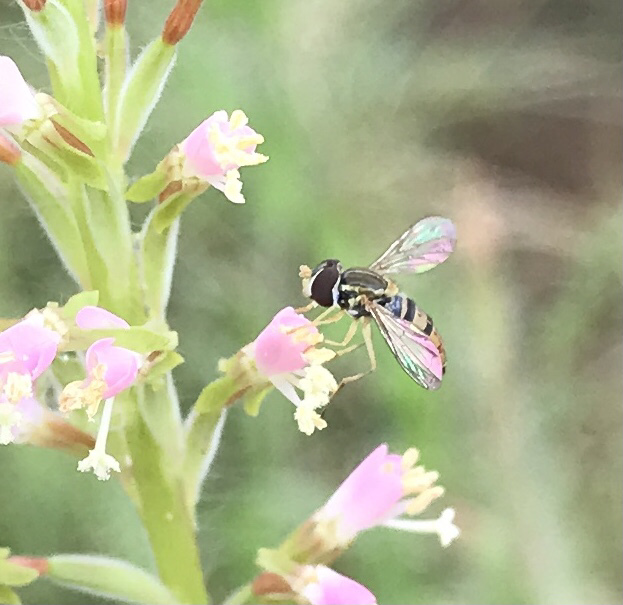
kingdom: Animalia
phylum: Arthropoda
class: Insecta
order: Diptera
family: Syrphidae
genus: Toxomerus
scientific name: Toxomerus marginatus
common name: Syrphid fly
